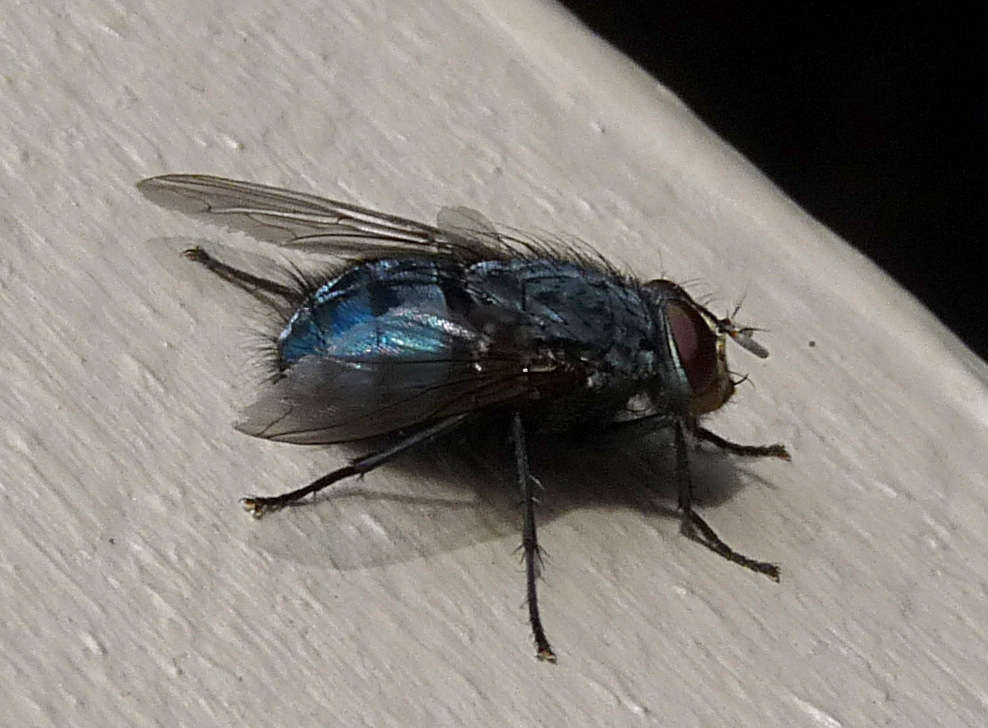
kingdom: Animalia
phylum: Arthropoda
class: Insecta
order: Diptera
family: Calliphoridae
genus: Calliphora
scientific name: Calliphora vicina
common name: Common blow flie
